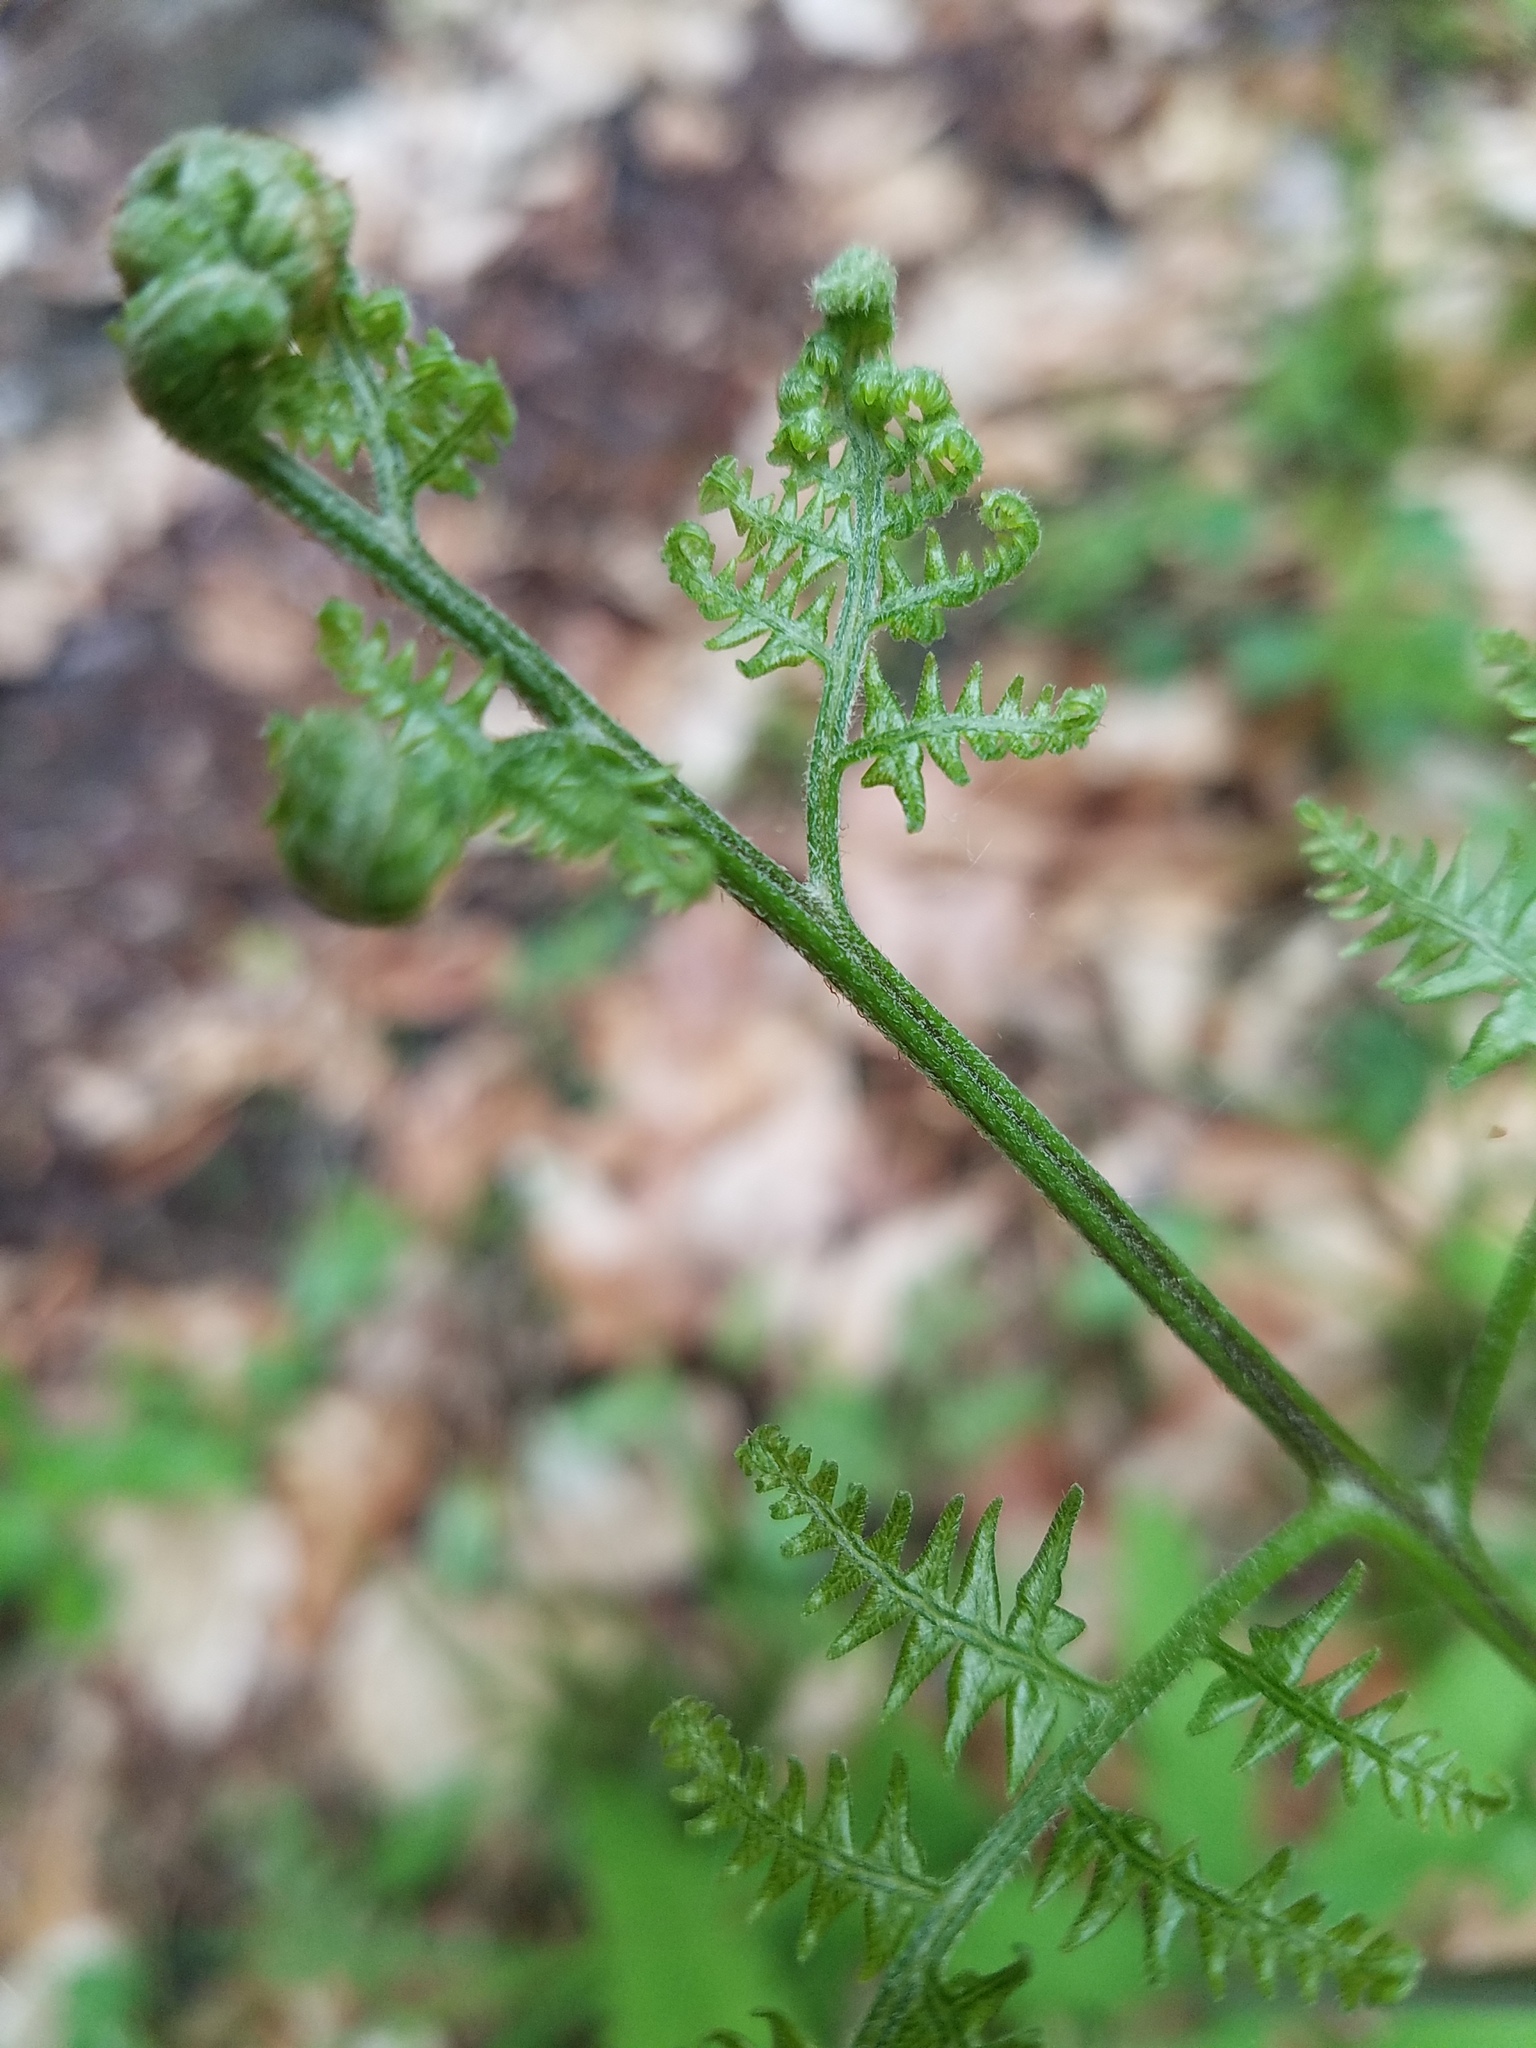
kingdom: Plantae
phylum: Tracheophyta
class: Polypodiopsida
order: Polypodiales
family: Dennstaedtiaceae
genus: Pteridium
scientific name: Pteridium aquilinum
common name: Bracken
